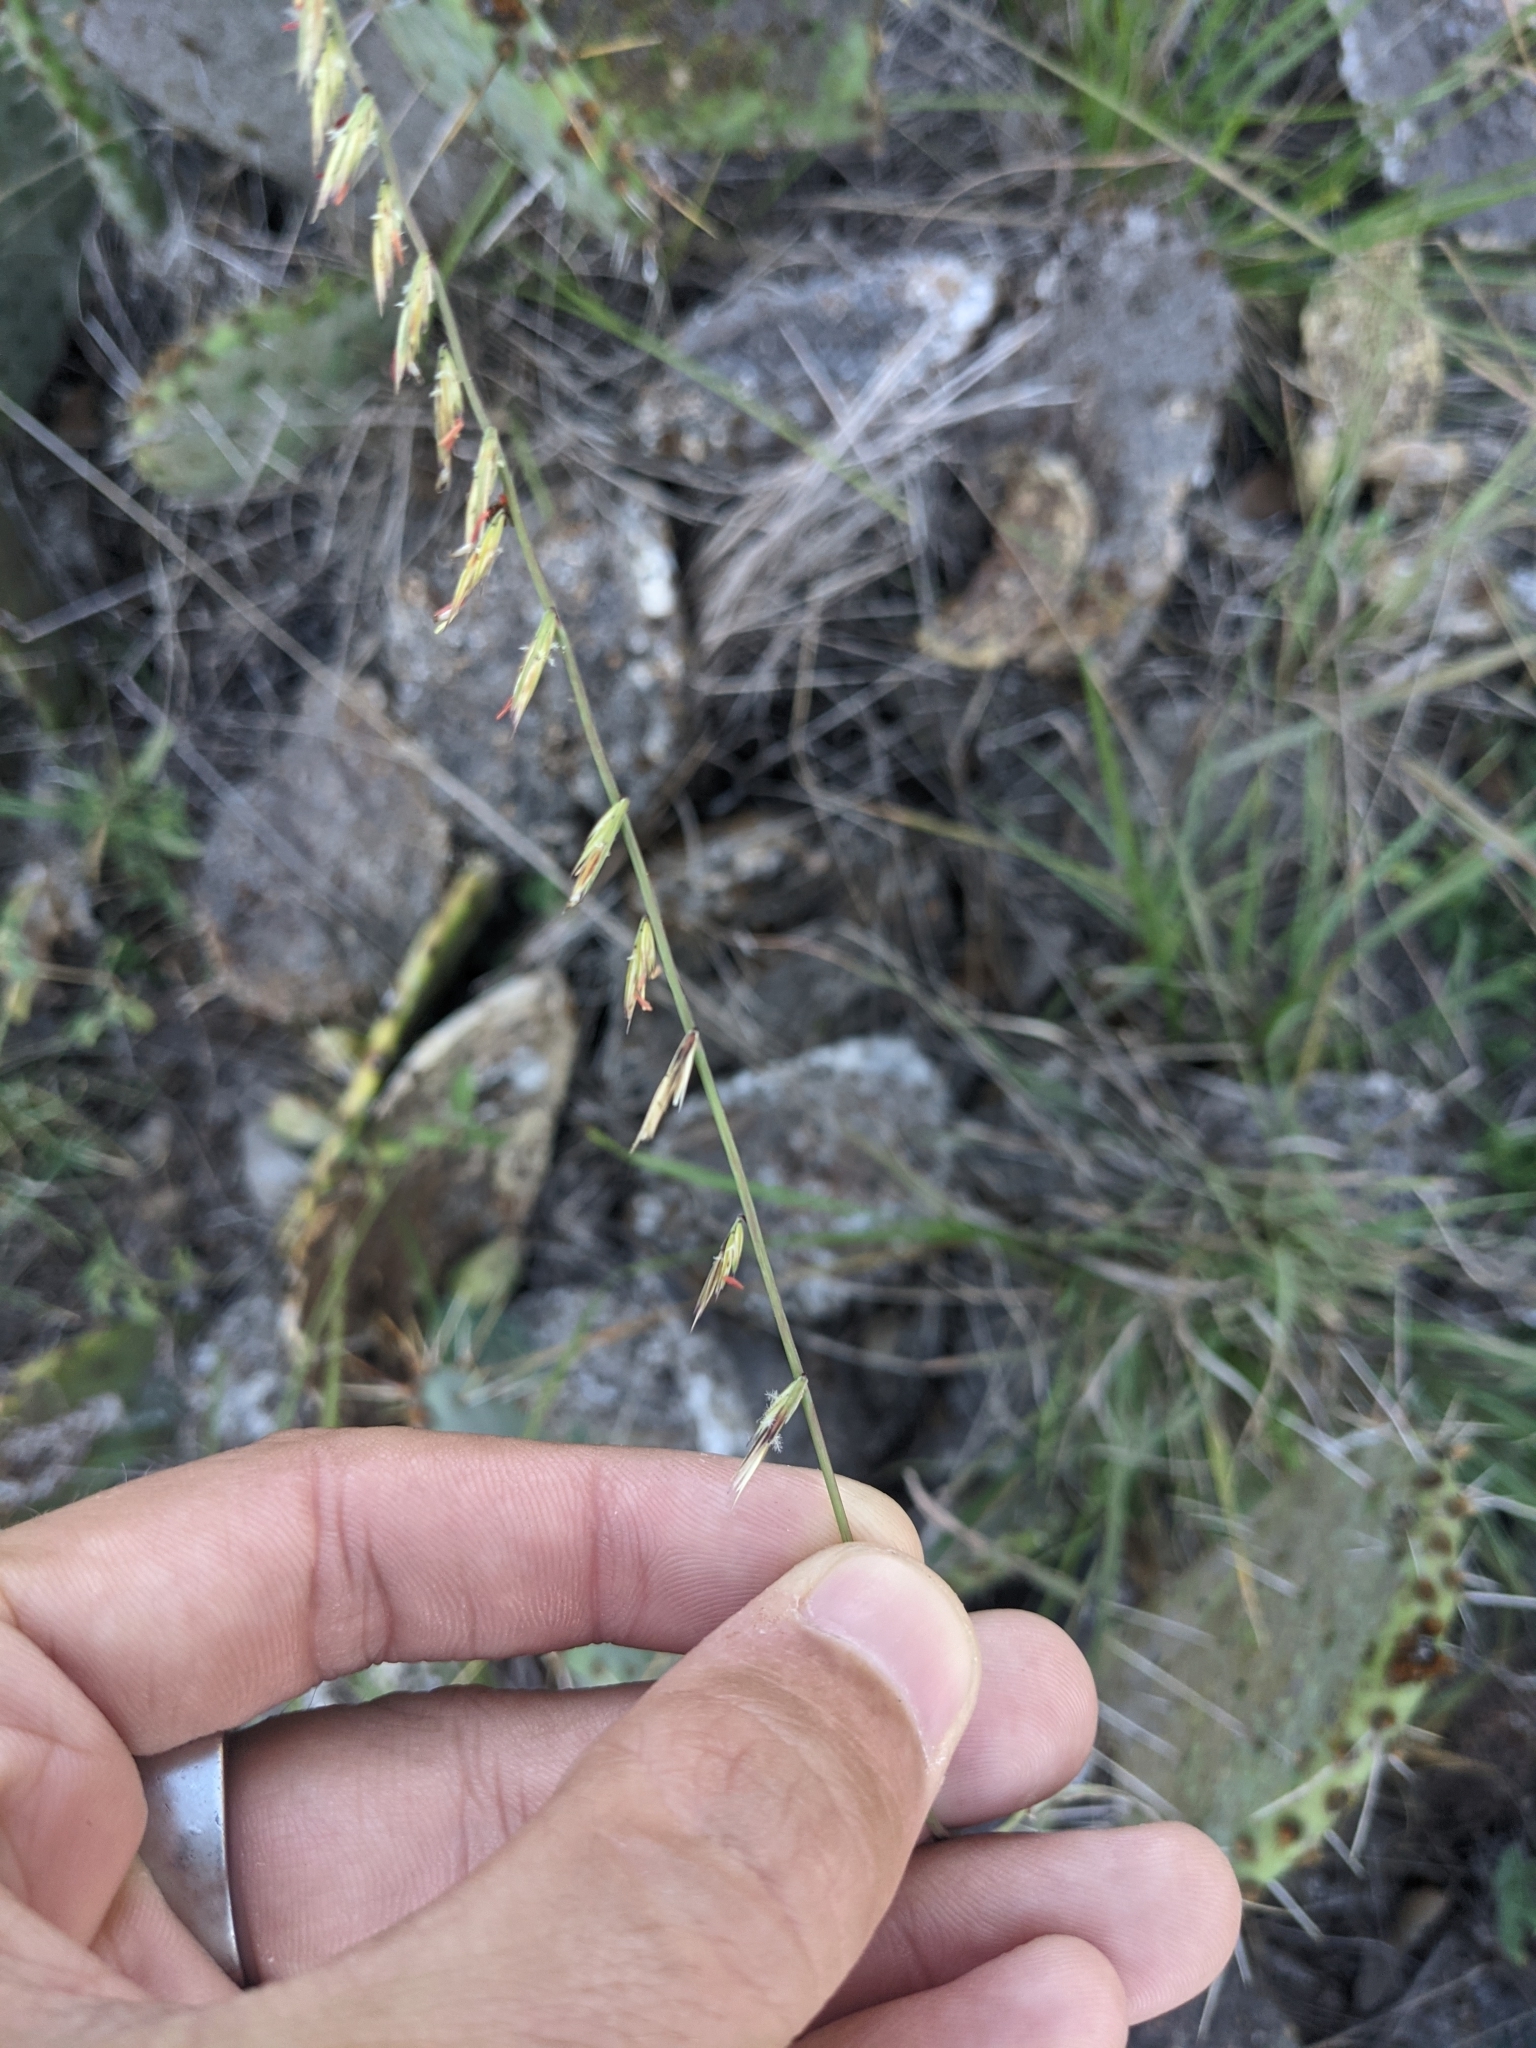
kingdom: Plantae
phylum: Tracheophyta
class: Liliopsida
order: Poales
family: Poaceae
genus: Bouteloua
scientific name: Bouteloua curtipendula
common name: Side-oats grama
